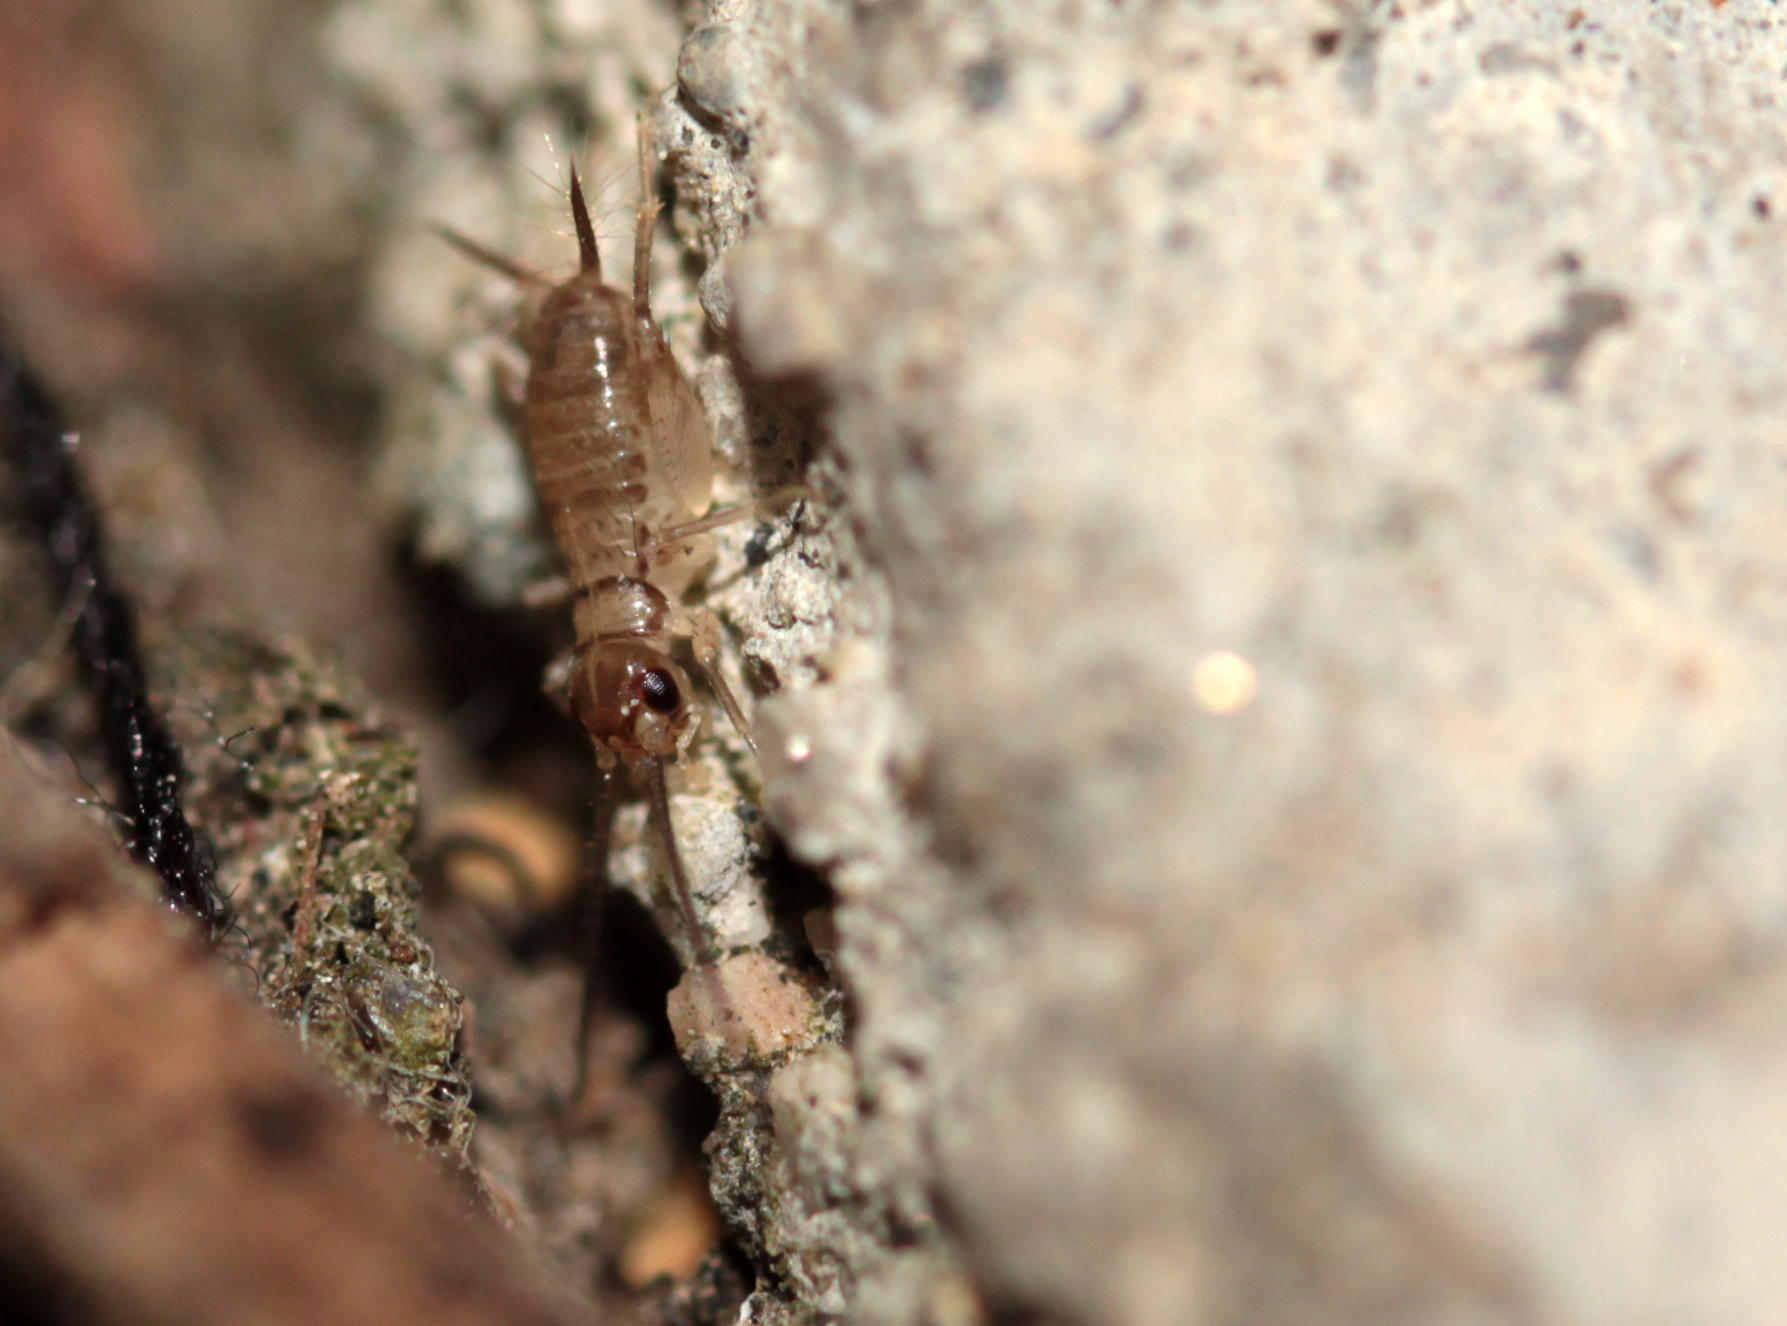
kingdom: Animalia
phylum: Arthropoda
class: Insecta
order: Orthoptera
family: Gryllidae
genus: Gryllodes
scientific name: Gryllodes sigillatus
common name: Tropical house cricket
